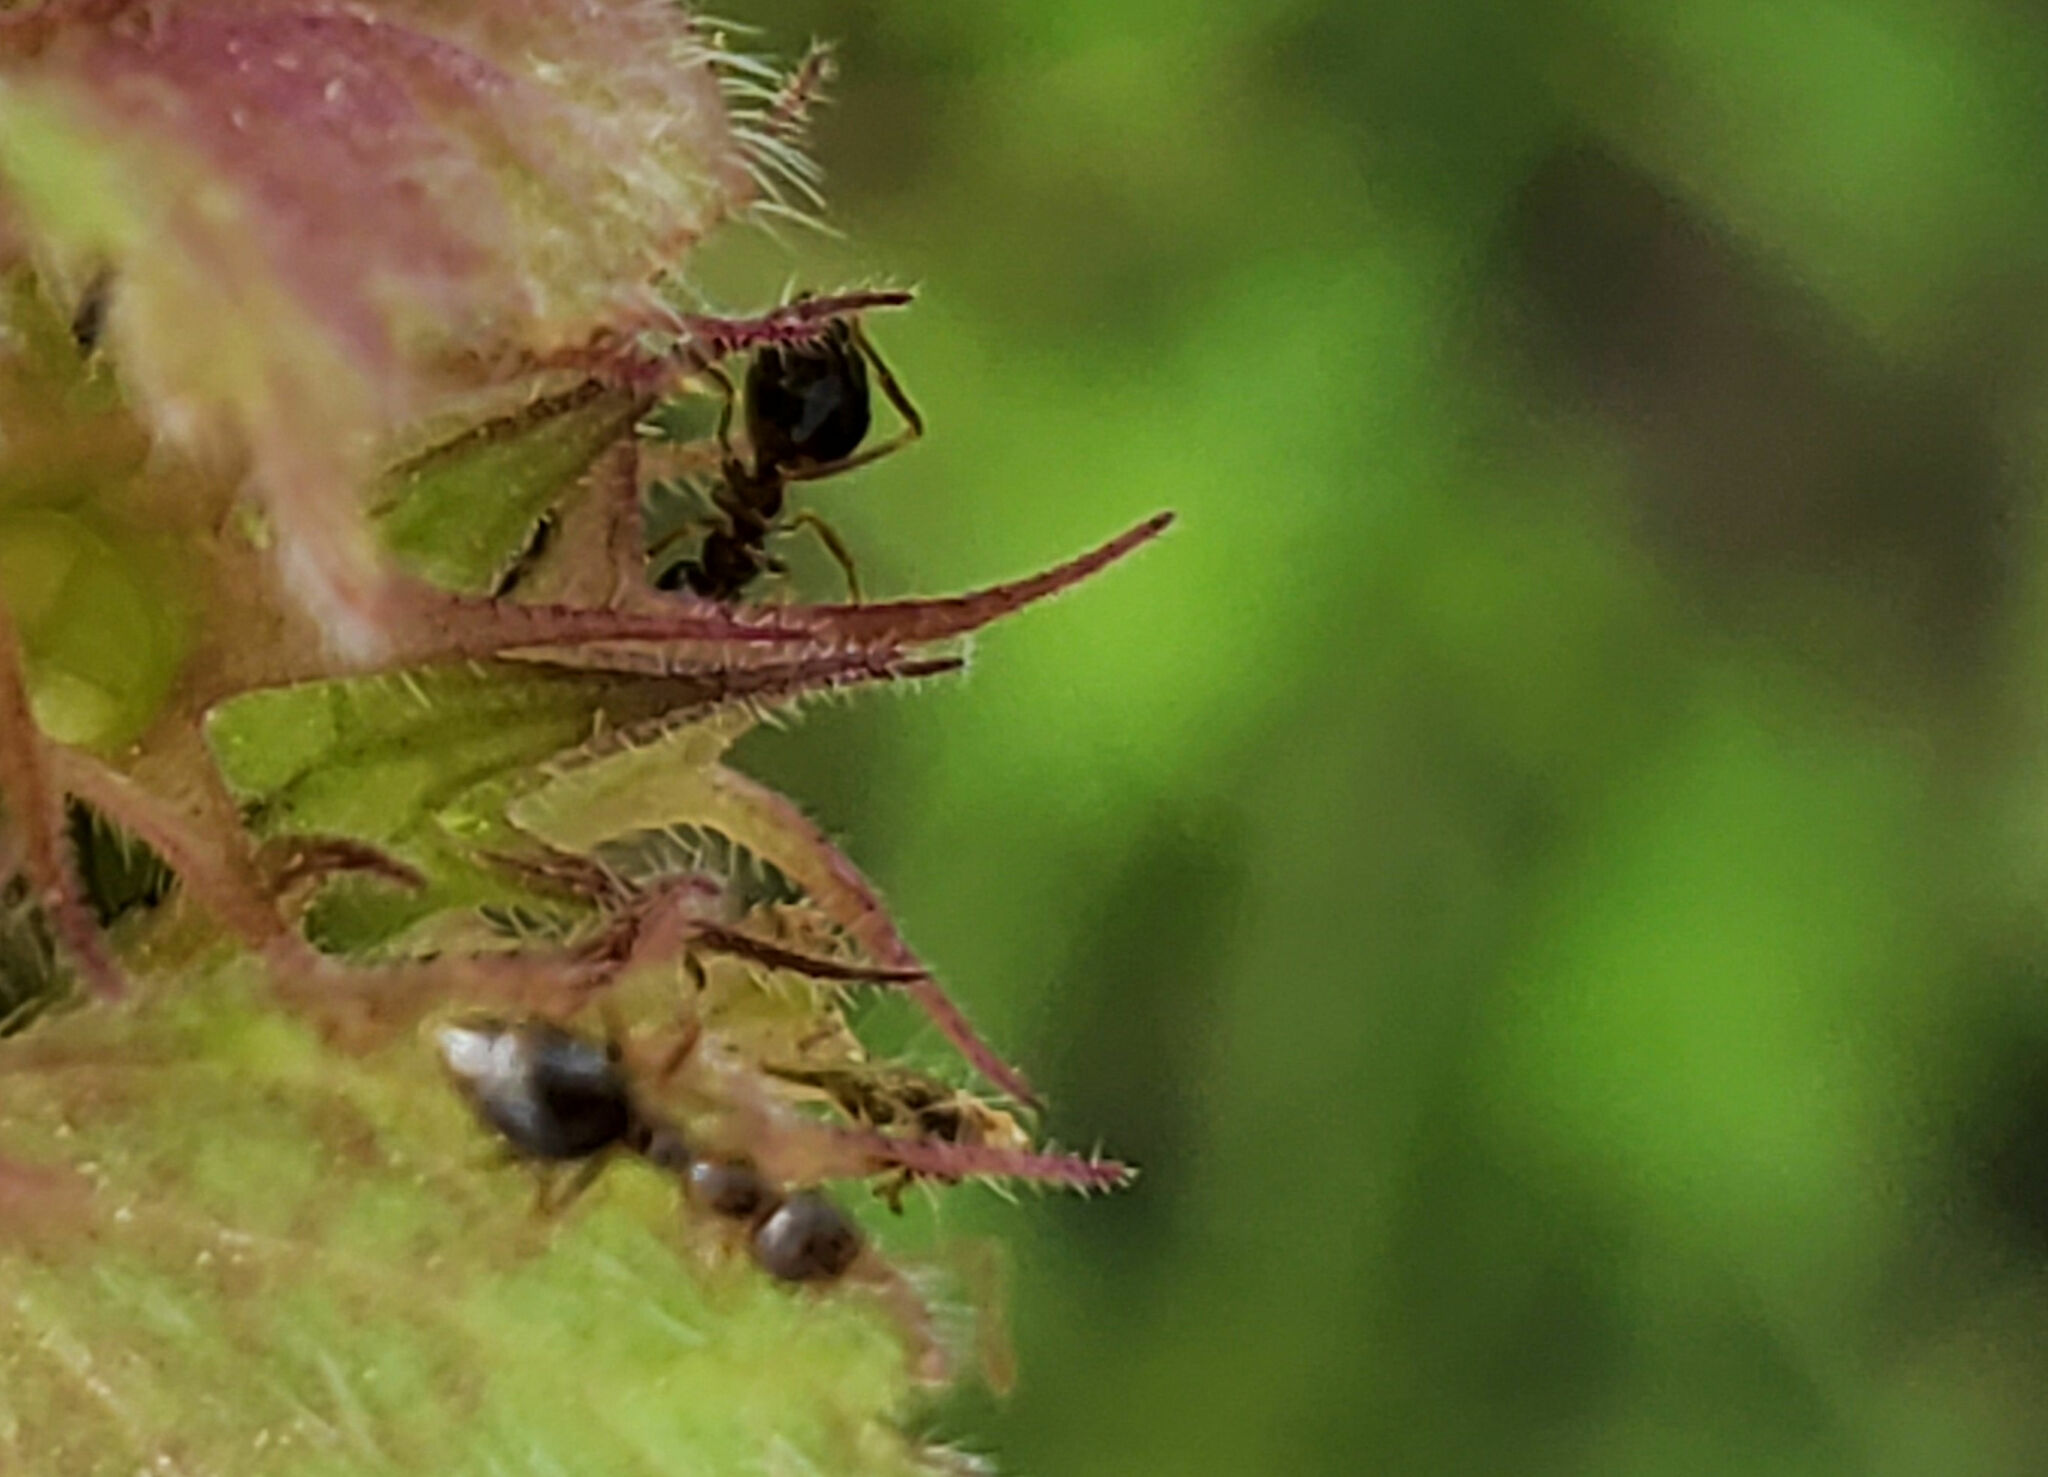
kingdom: Animalia
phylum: Arthropoda
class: Insecta
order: Hymenoptera
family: Formicidae
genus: Prenolepis
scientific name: Prenolepis imparis
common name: Small honey ant
